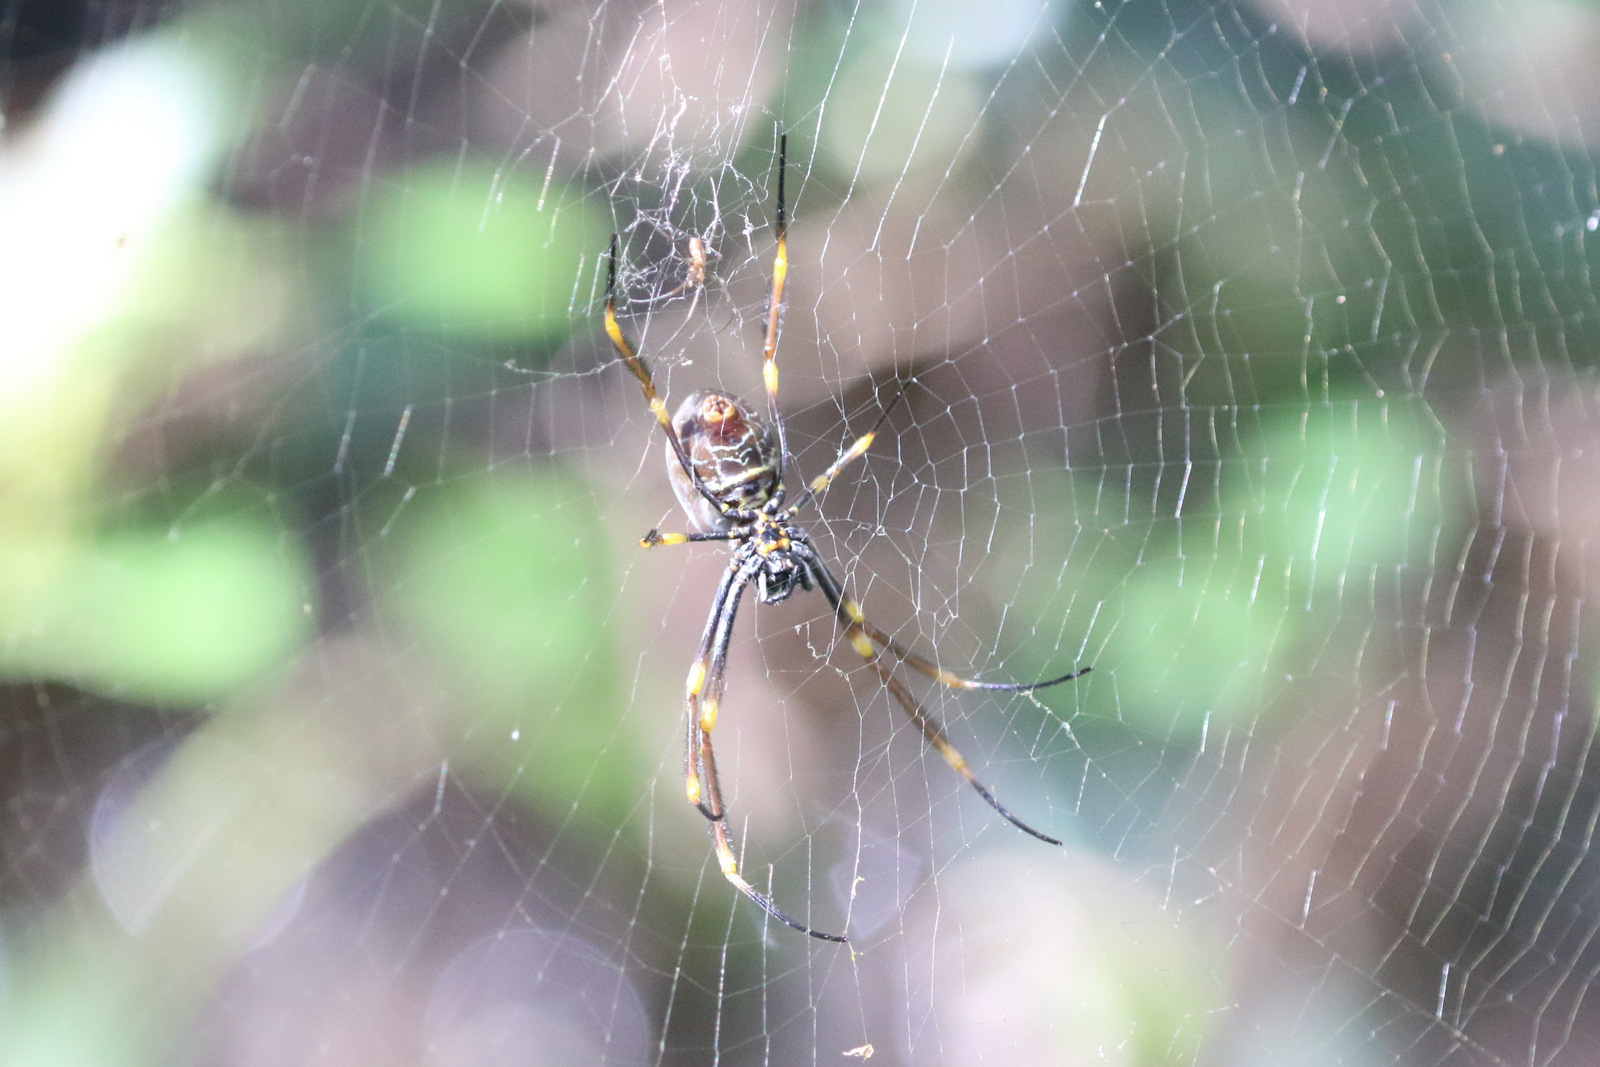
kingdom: Animalia
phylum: Arthropoda
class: Arachnida
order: Araneae
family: Araneidae
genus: Trichonephila
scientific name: Trichonephila plumipes
